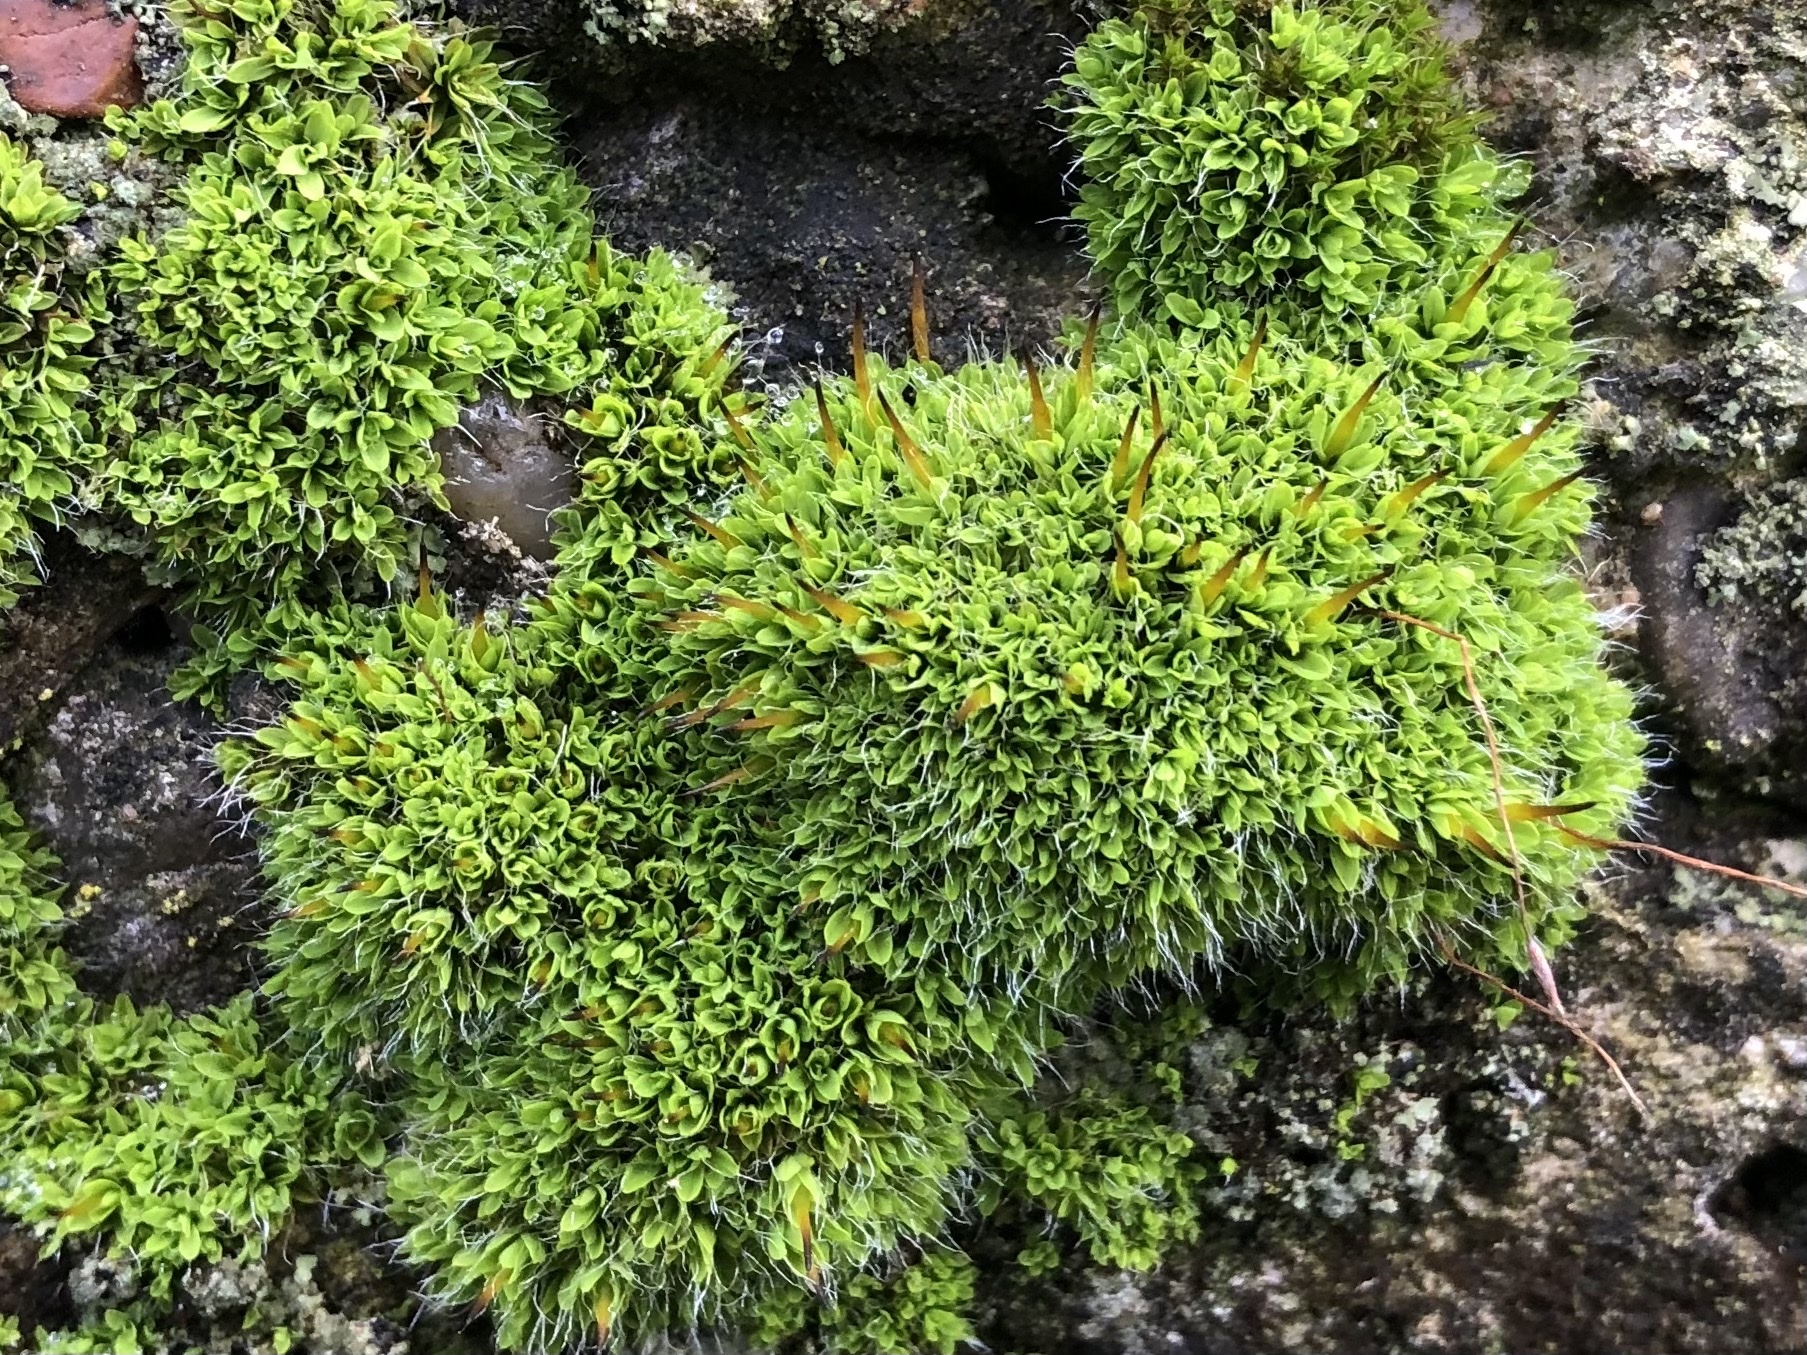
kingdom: Plantae
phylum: Bryophyta
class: Bryopsida
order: Pottiales
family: Pottiaceae
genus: Tortula
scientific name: Tortula muralis
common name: Wall screw-moss
